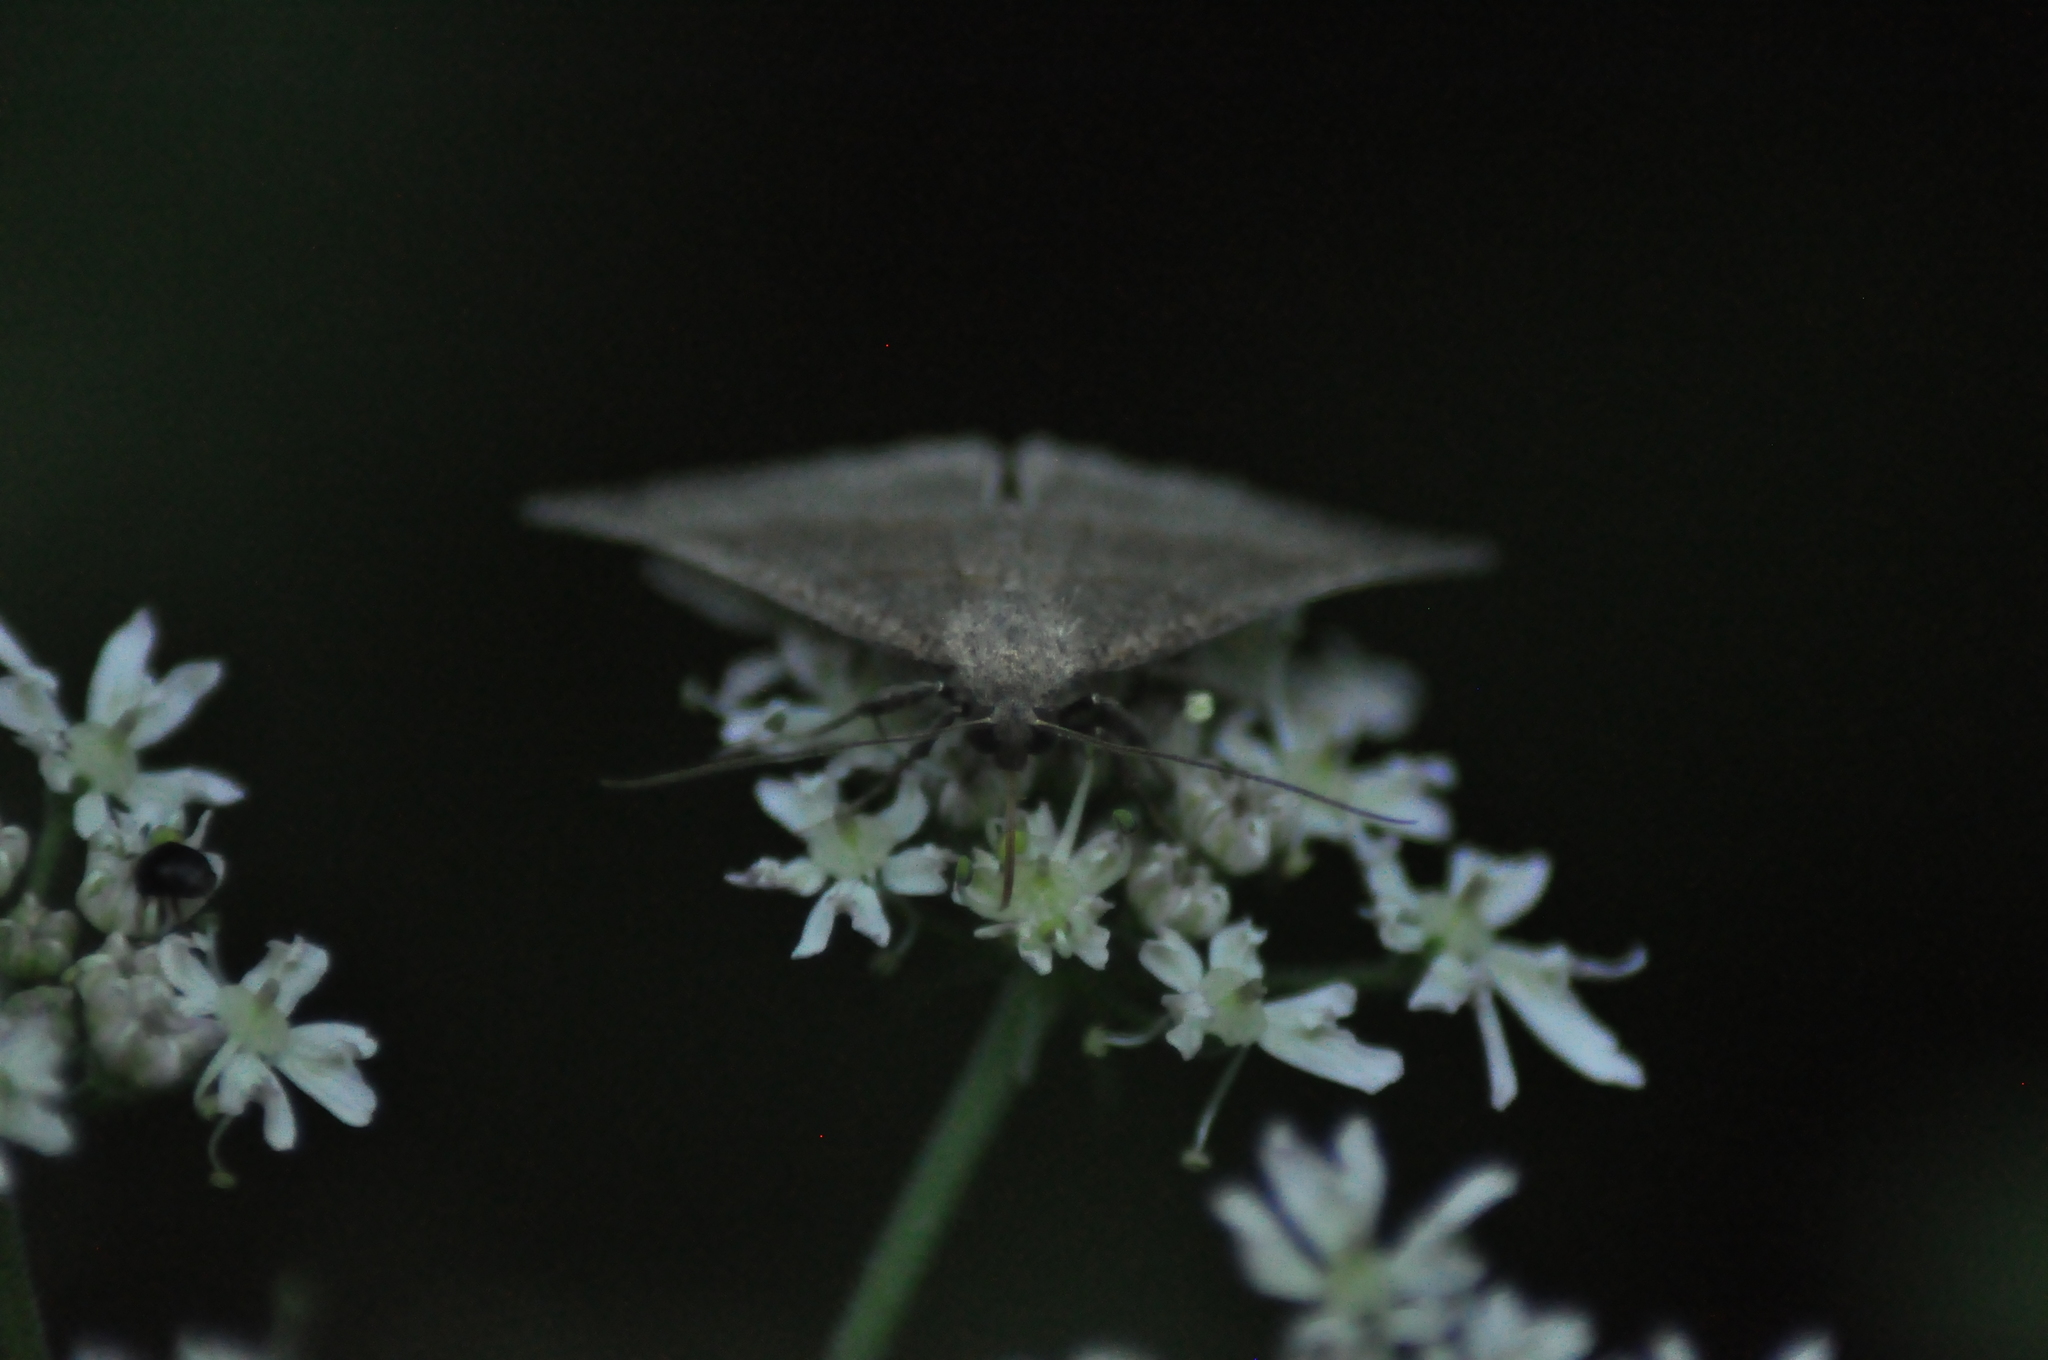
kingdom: Animalia
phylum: Arthropoda
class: Insecta
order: Lepidoptera
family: Erebidae
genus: Hypena
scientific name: Hypena proboscidalis
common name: Snout
